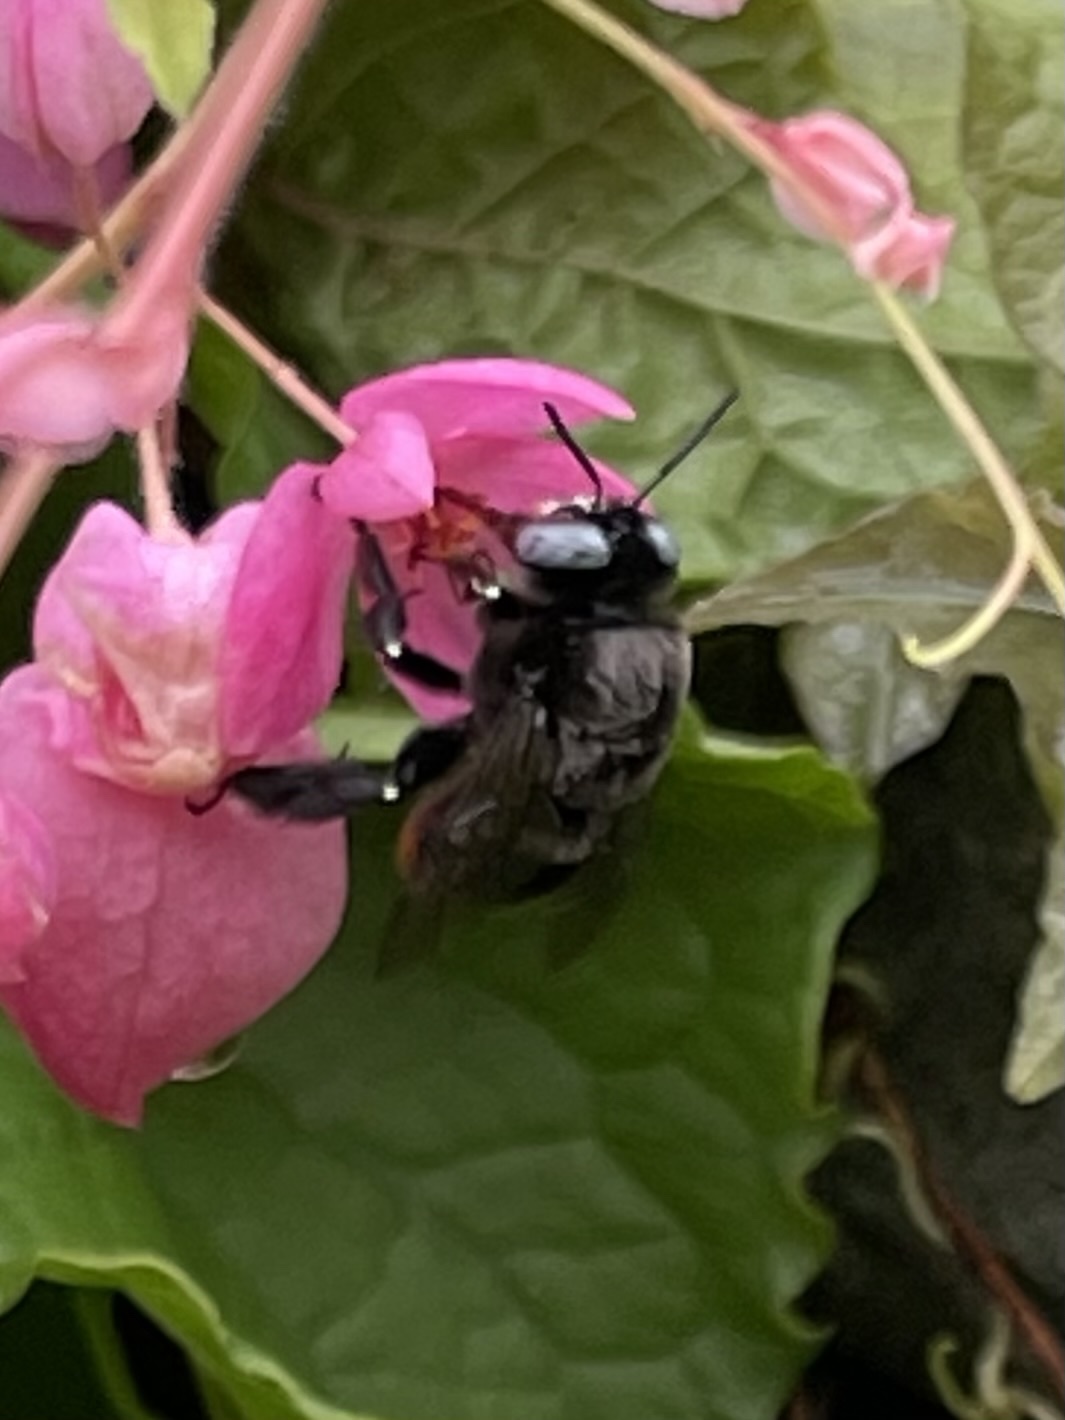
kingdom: Animalia
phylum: Arthropoda
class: Insecta
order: Hymenoptera
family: Apidae
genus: Centris
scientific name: Centris haemorrhoidalis
